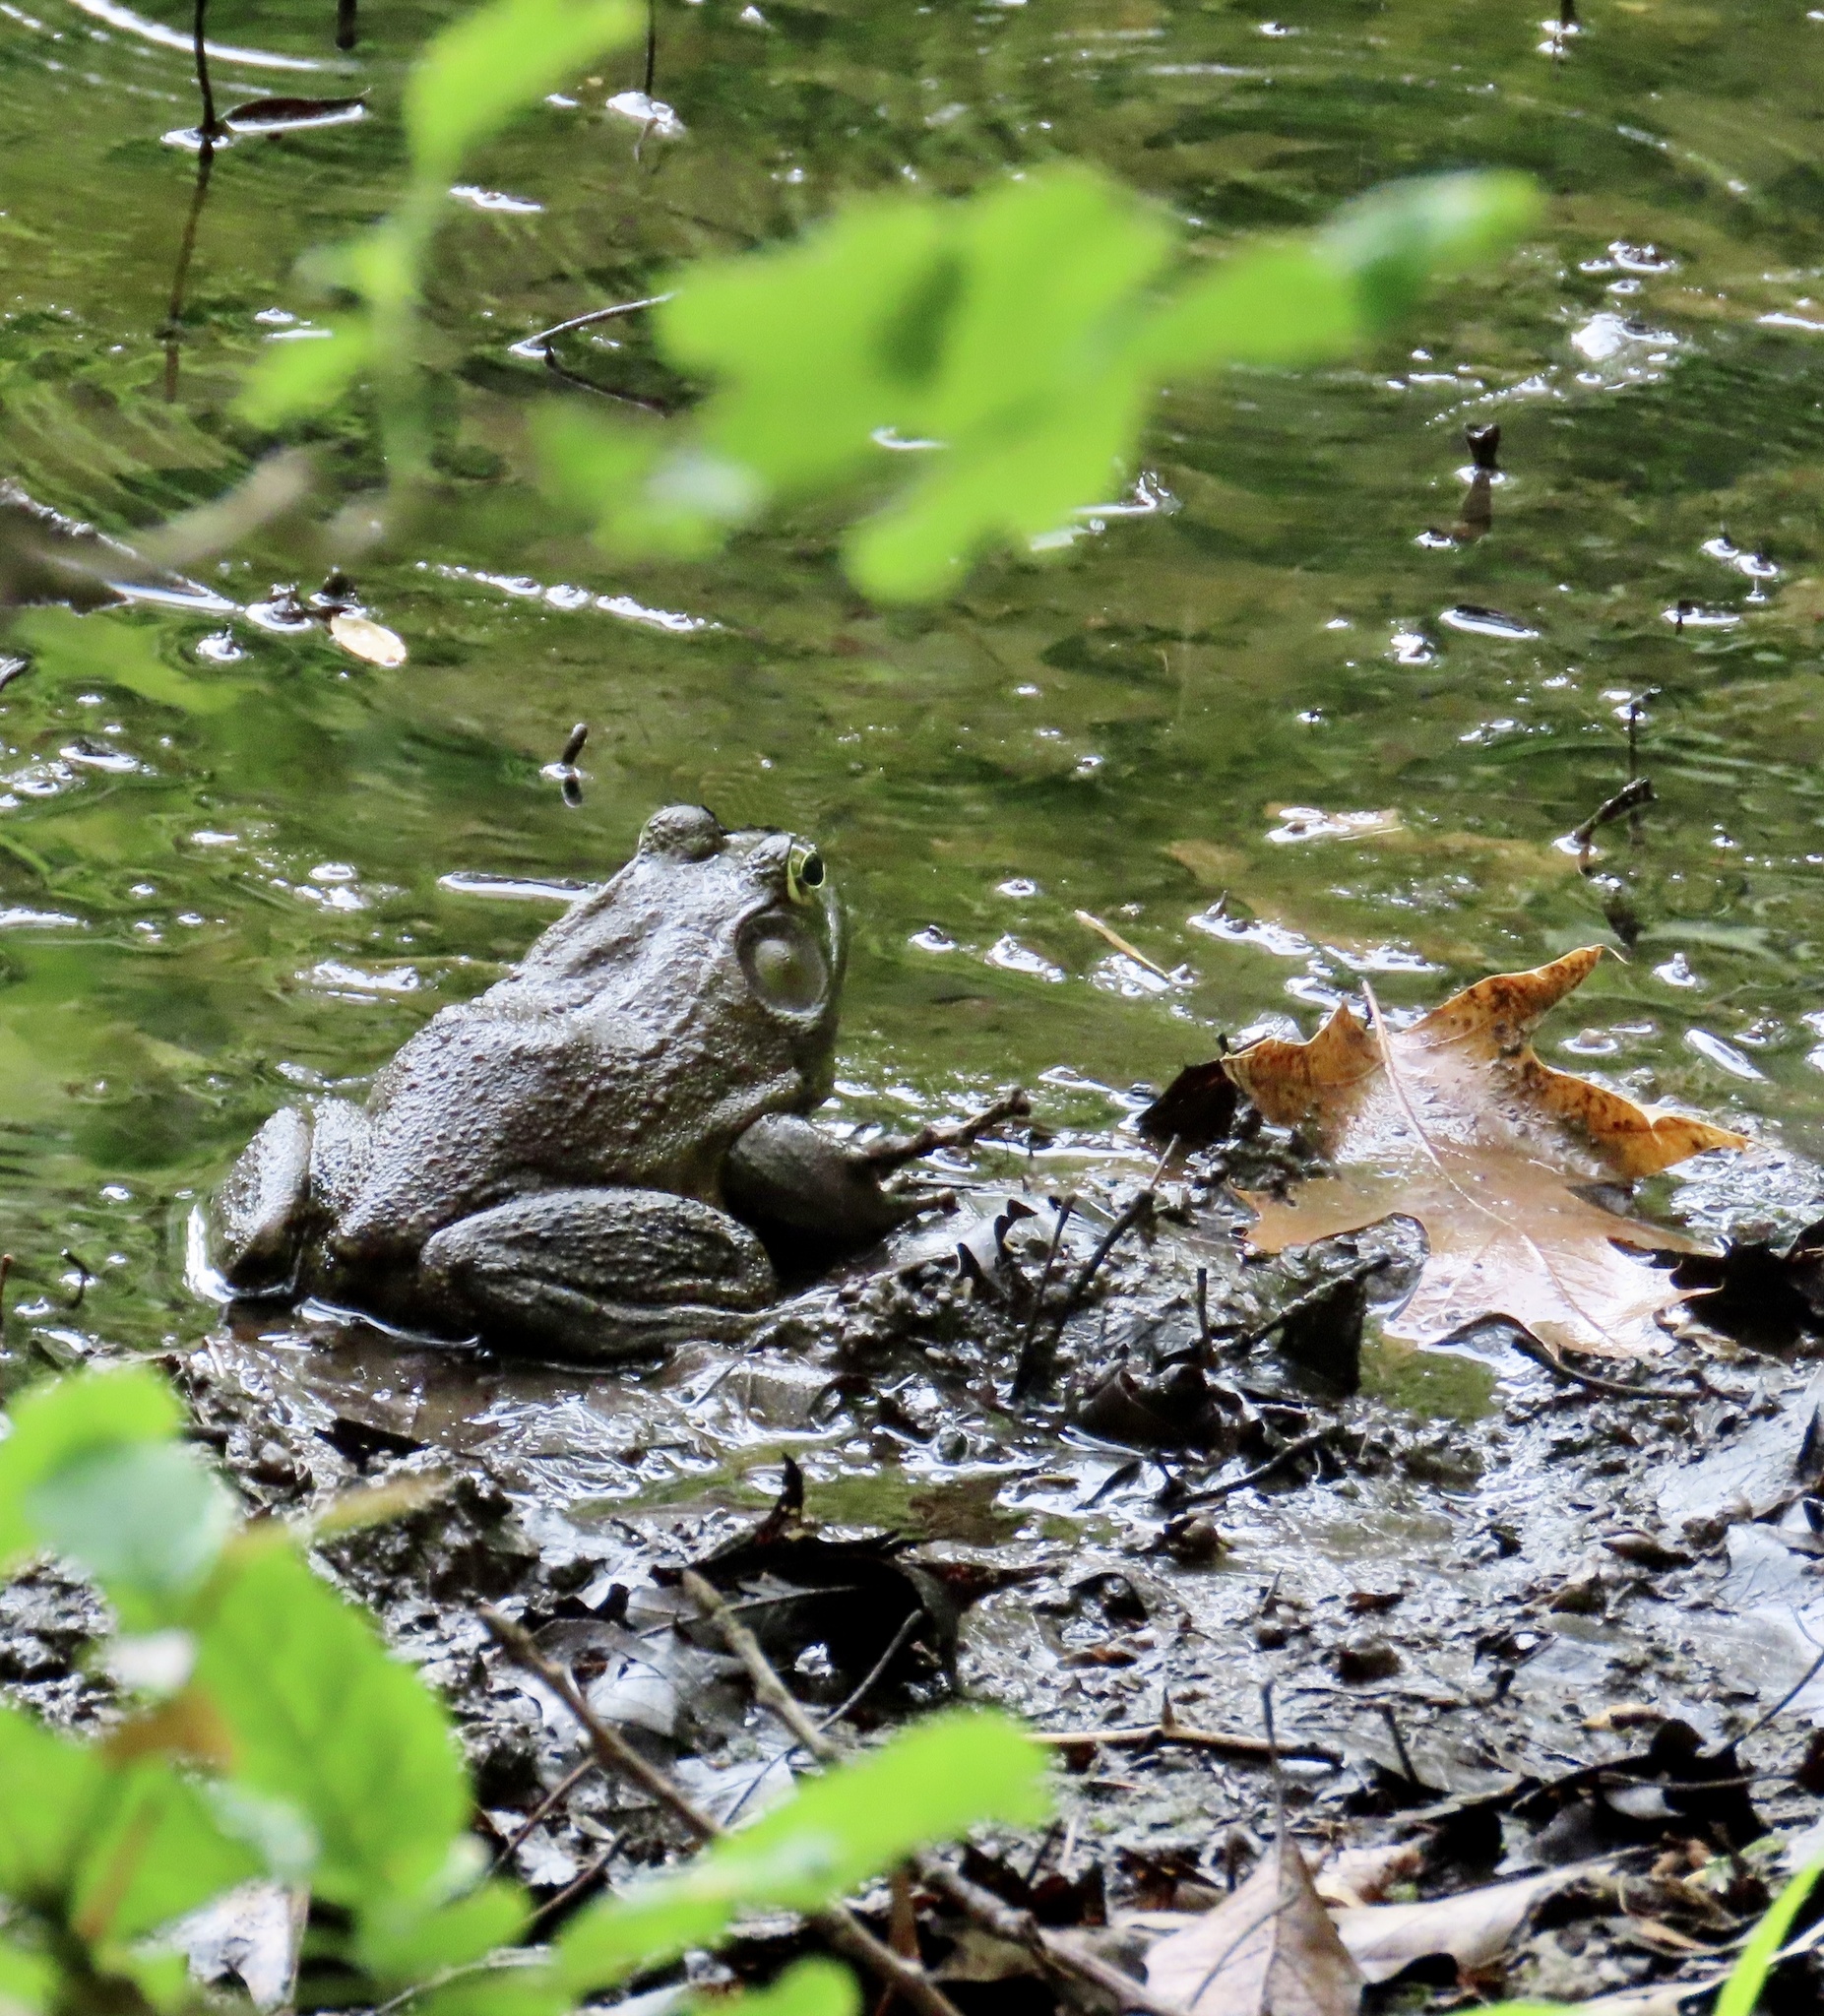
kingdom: Animalia
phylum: Chordata
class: Amphibia
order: Anura
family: Ranidae
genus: Lithobates
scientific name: Lithobates catesbeianus
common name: American bullfrog
